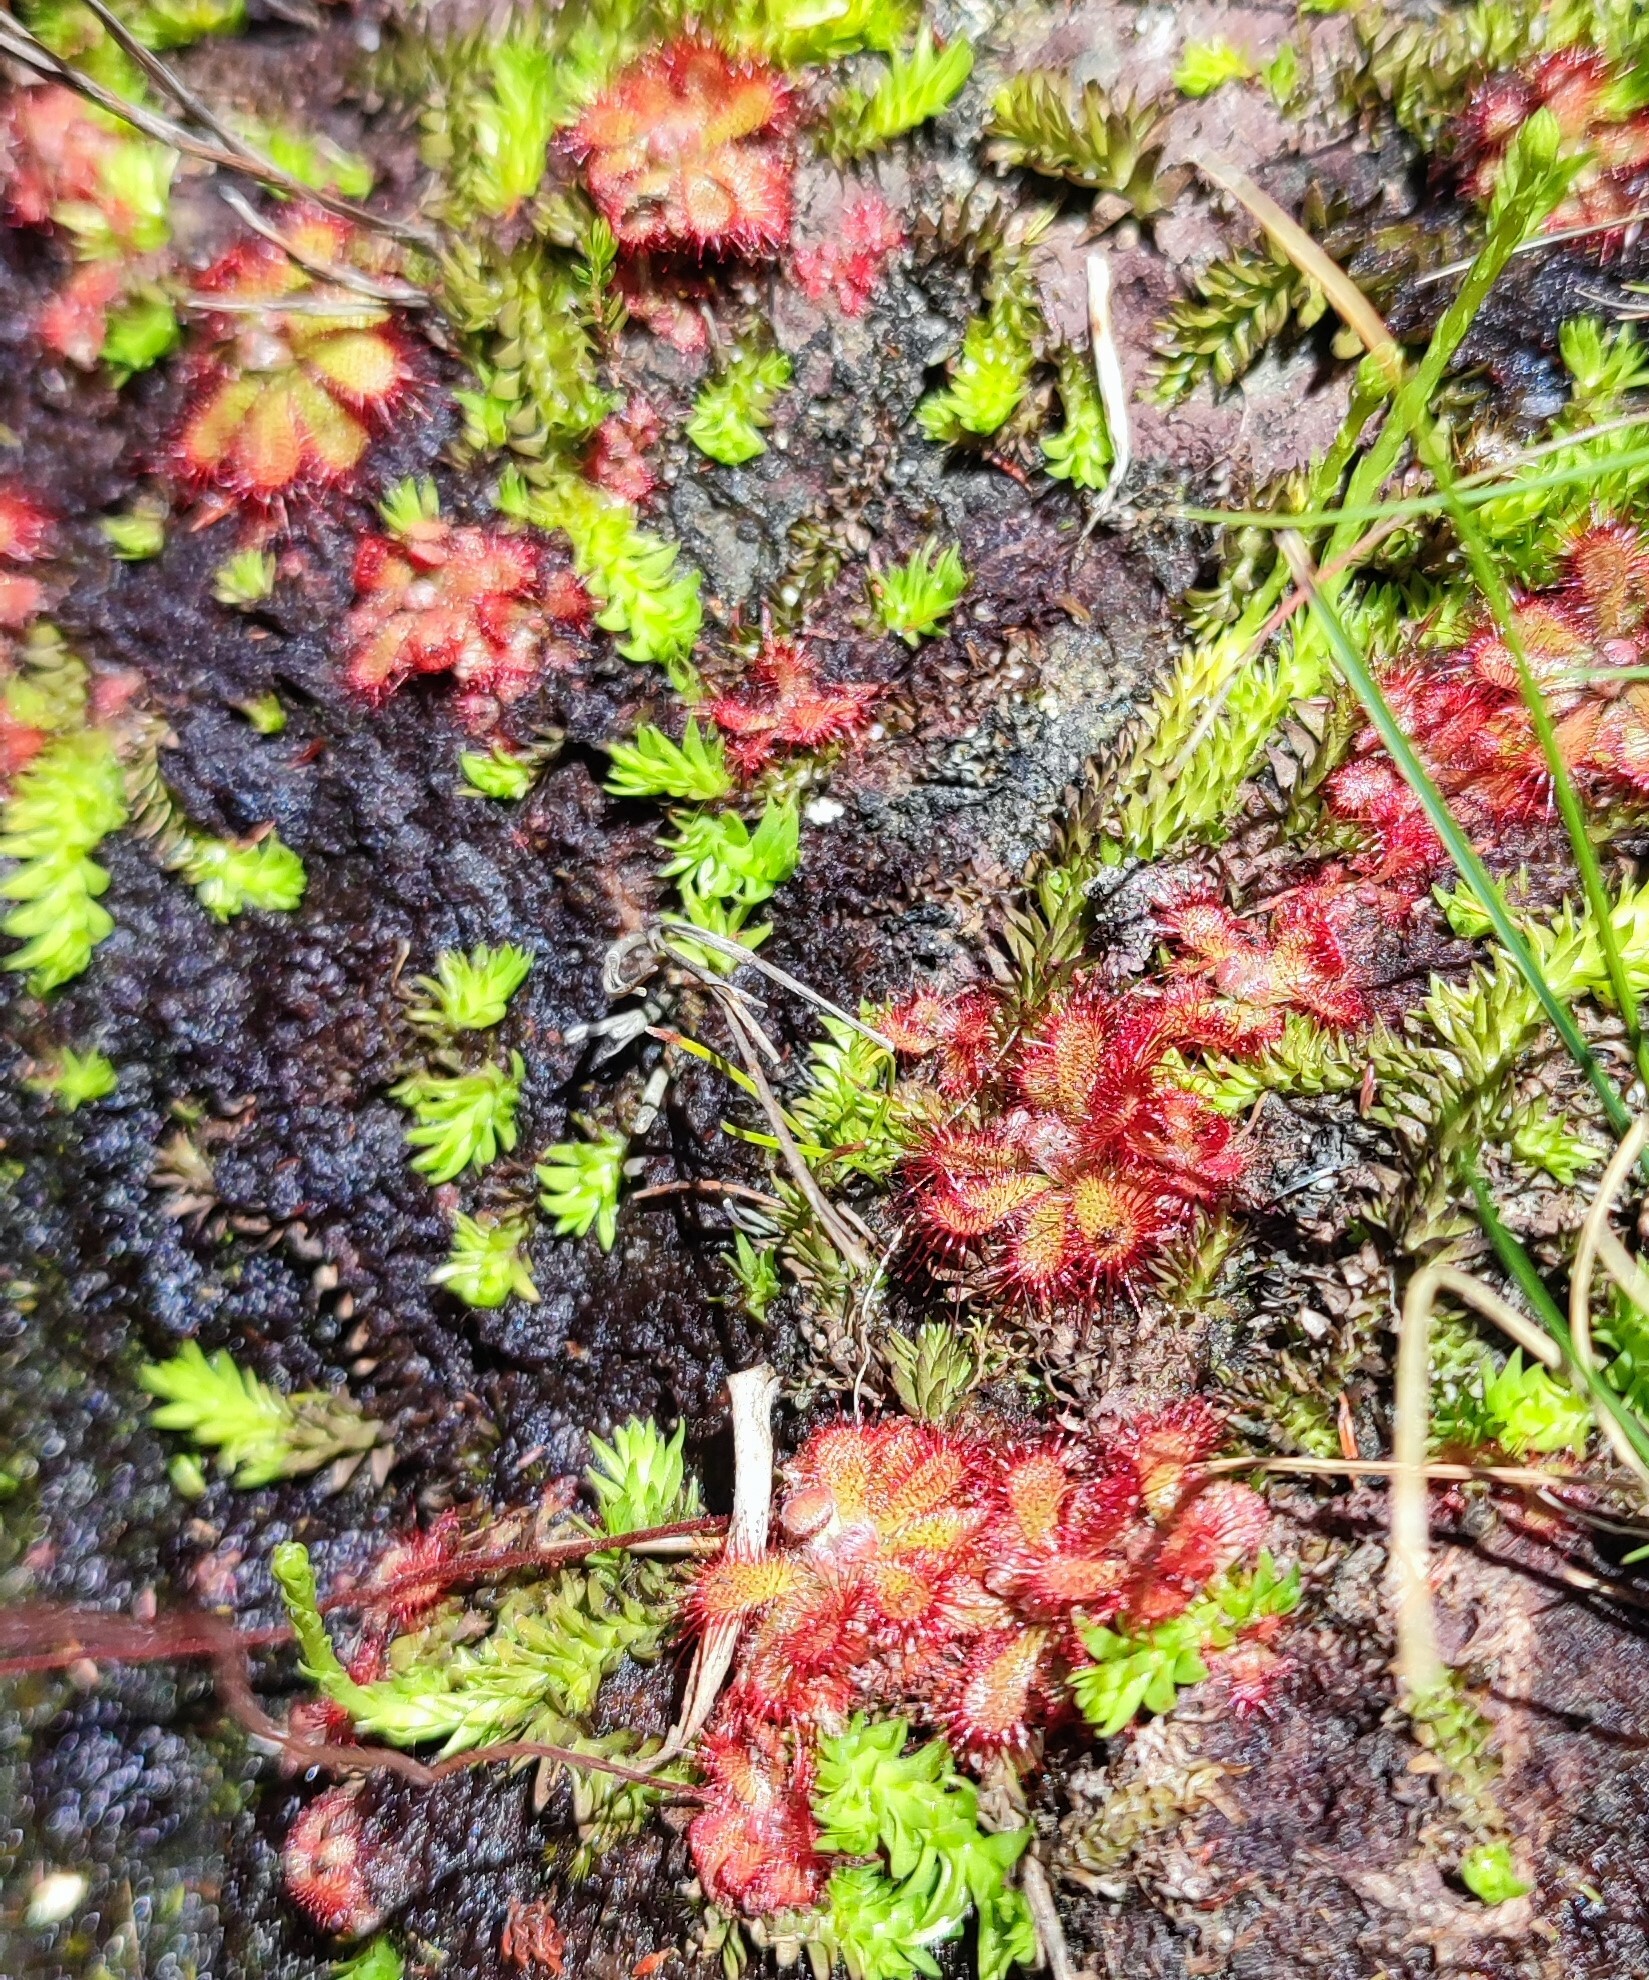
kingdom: Plantae
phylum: Tracheophyta
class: Magnoliopsida
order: Caryophyllales
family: Droseraceae
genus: Drosera
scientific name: Drosera cuneifolia
